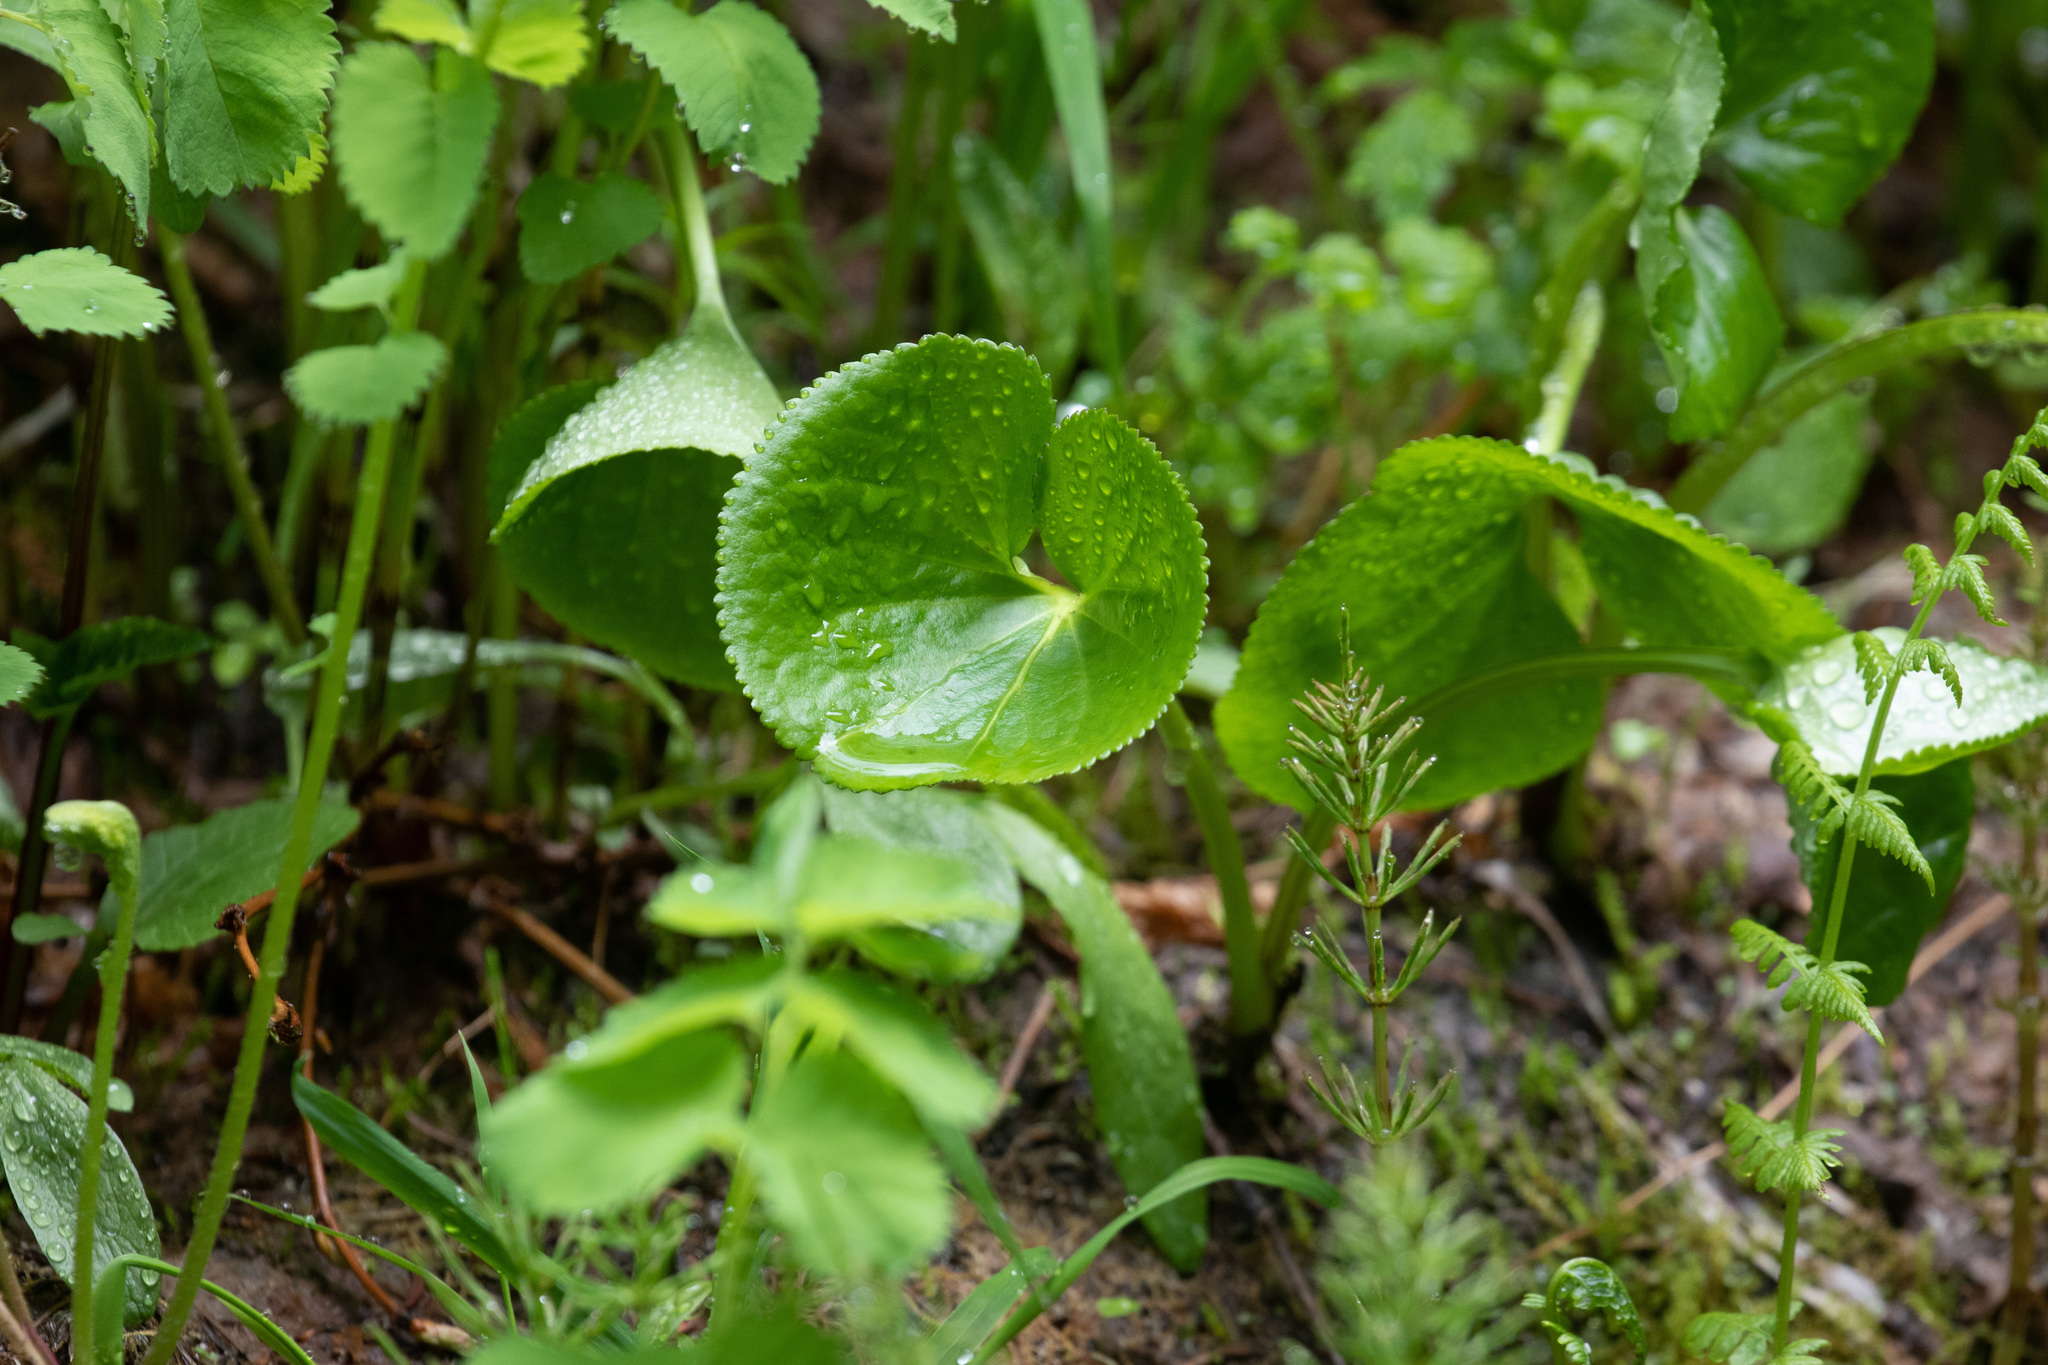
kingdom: Plantae
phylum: Tracheophyta
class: Magnoliopsida
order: Asterales
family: Menyanthaceae
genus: Nephrophyllidium
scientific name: Nephrophyllidium crista-galli
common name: Deer-cabbage
